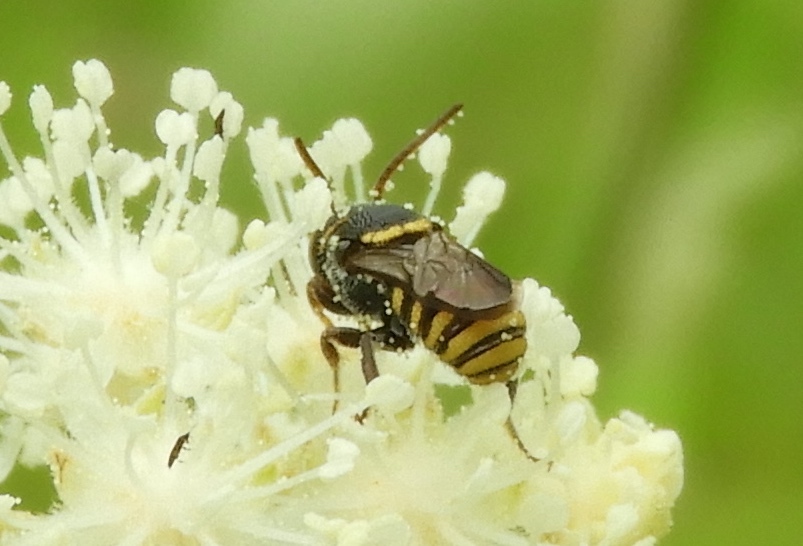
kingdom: Animalia
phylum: Arthropoda
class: Insecta
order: Hymenoptera
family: Megachilidae
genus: Anthodioctes
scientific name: Anthodioctes
